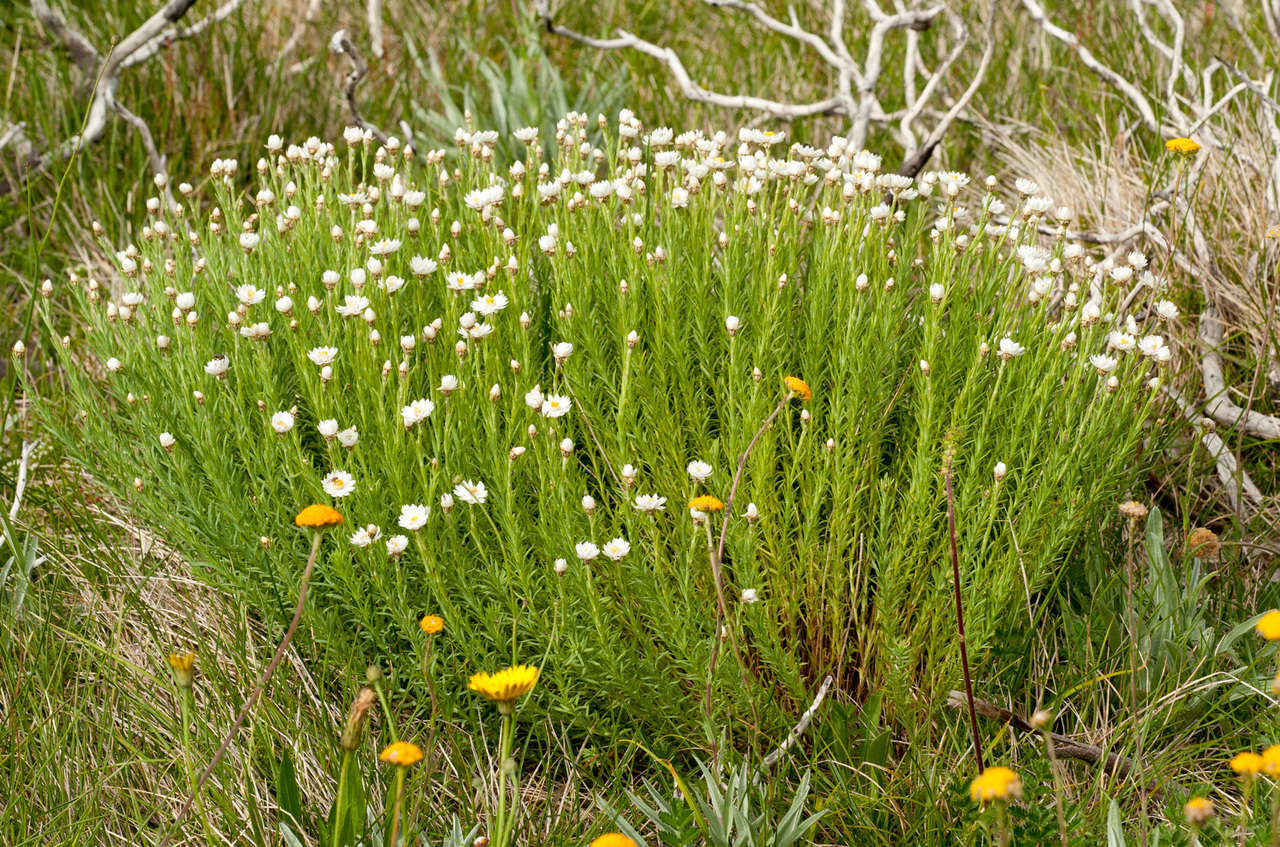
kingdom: Plantae
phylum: Tracheophyta
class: Magnoliopsida
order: Asterales
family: Asteraceae
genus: Rhodanthe
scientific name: Rhodanthe anthemoides
